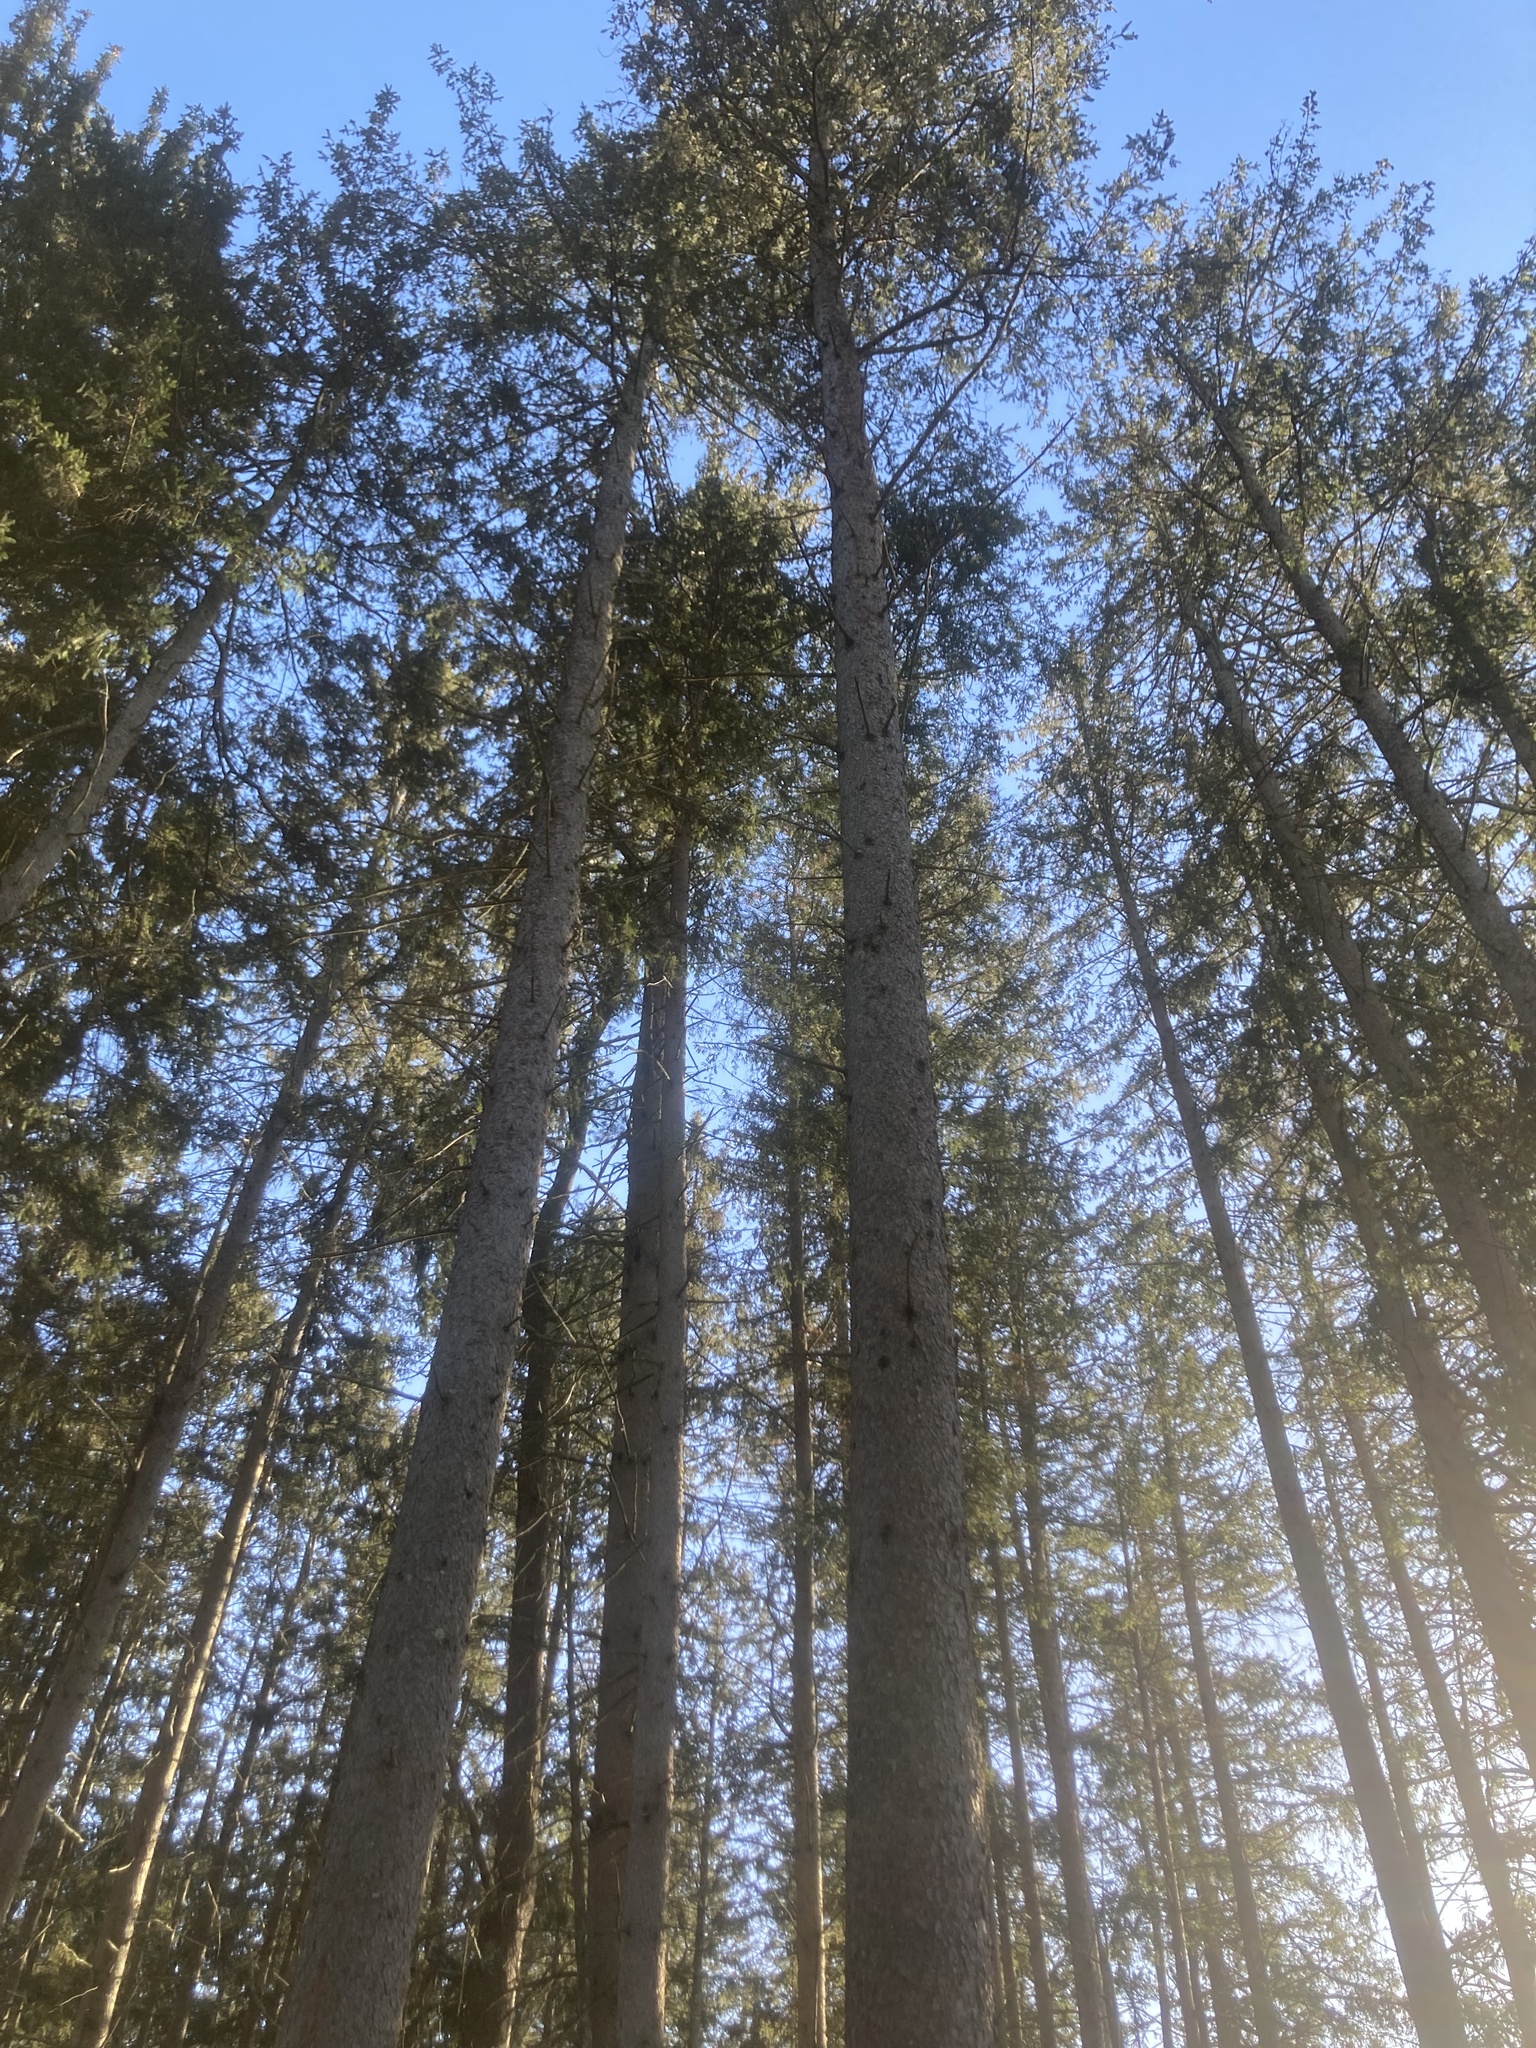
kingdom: Plantae
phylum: Tracheophyta
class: Pinopsida
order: Pinales
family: Pinaceae
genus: Picea
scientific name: Picea abies
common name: Norway spruce
